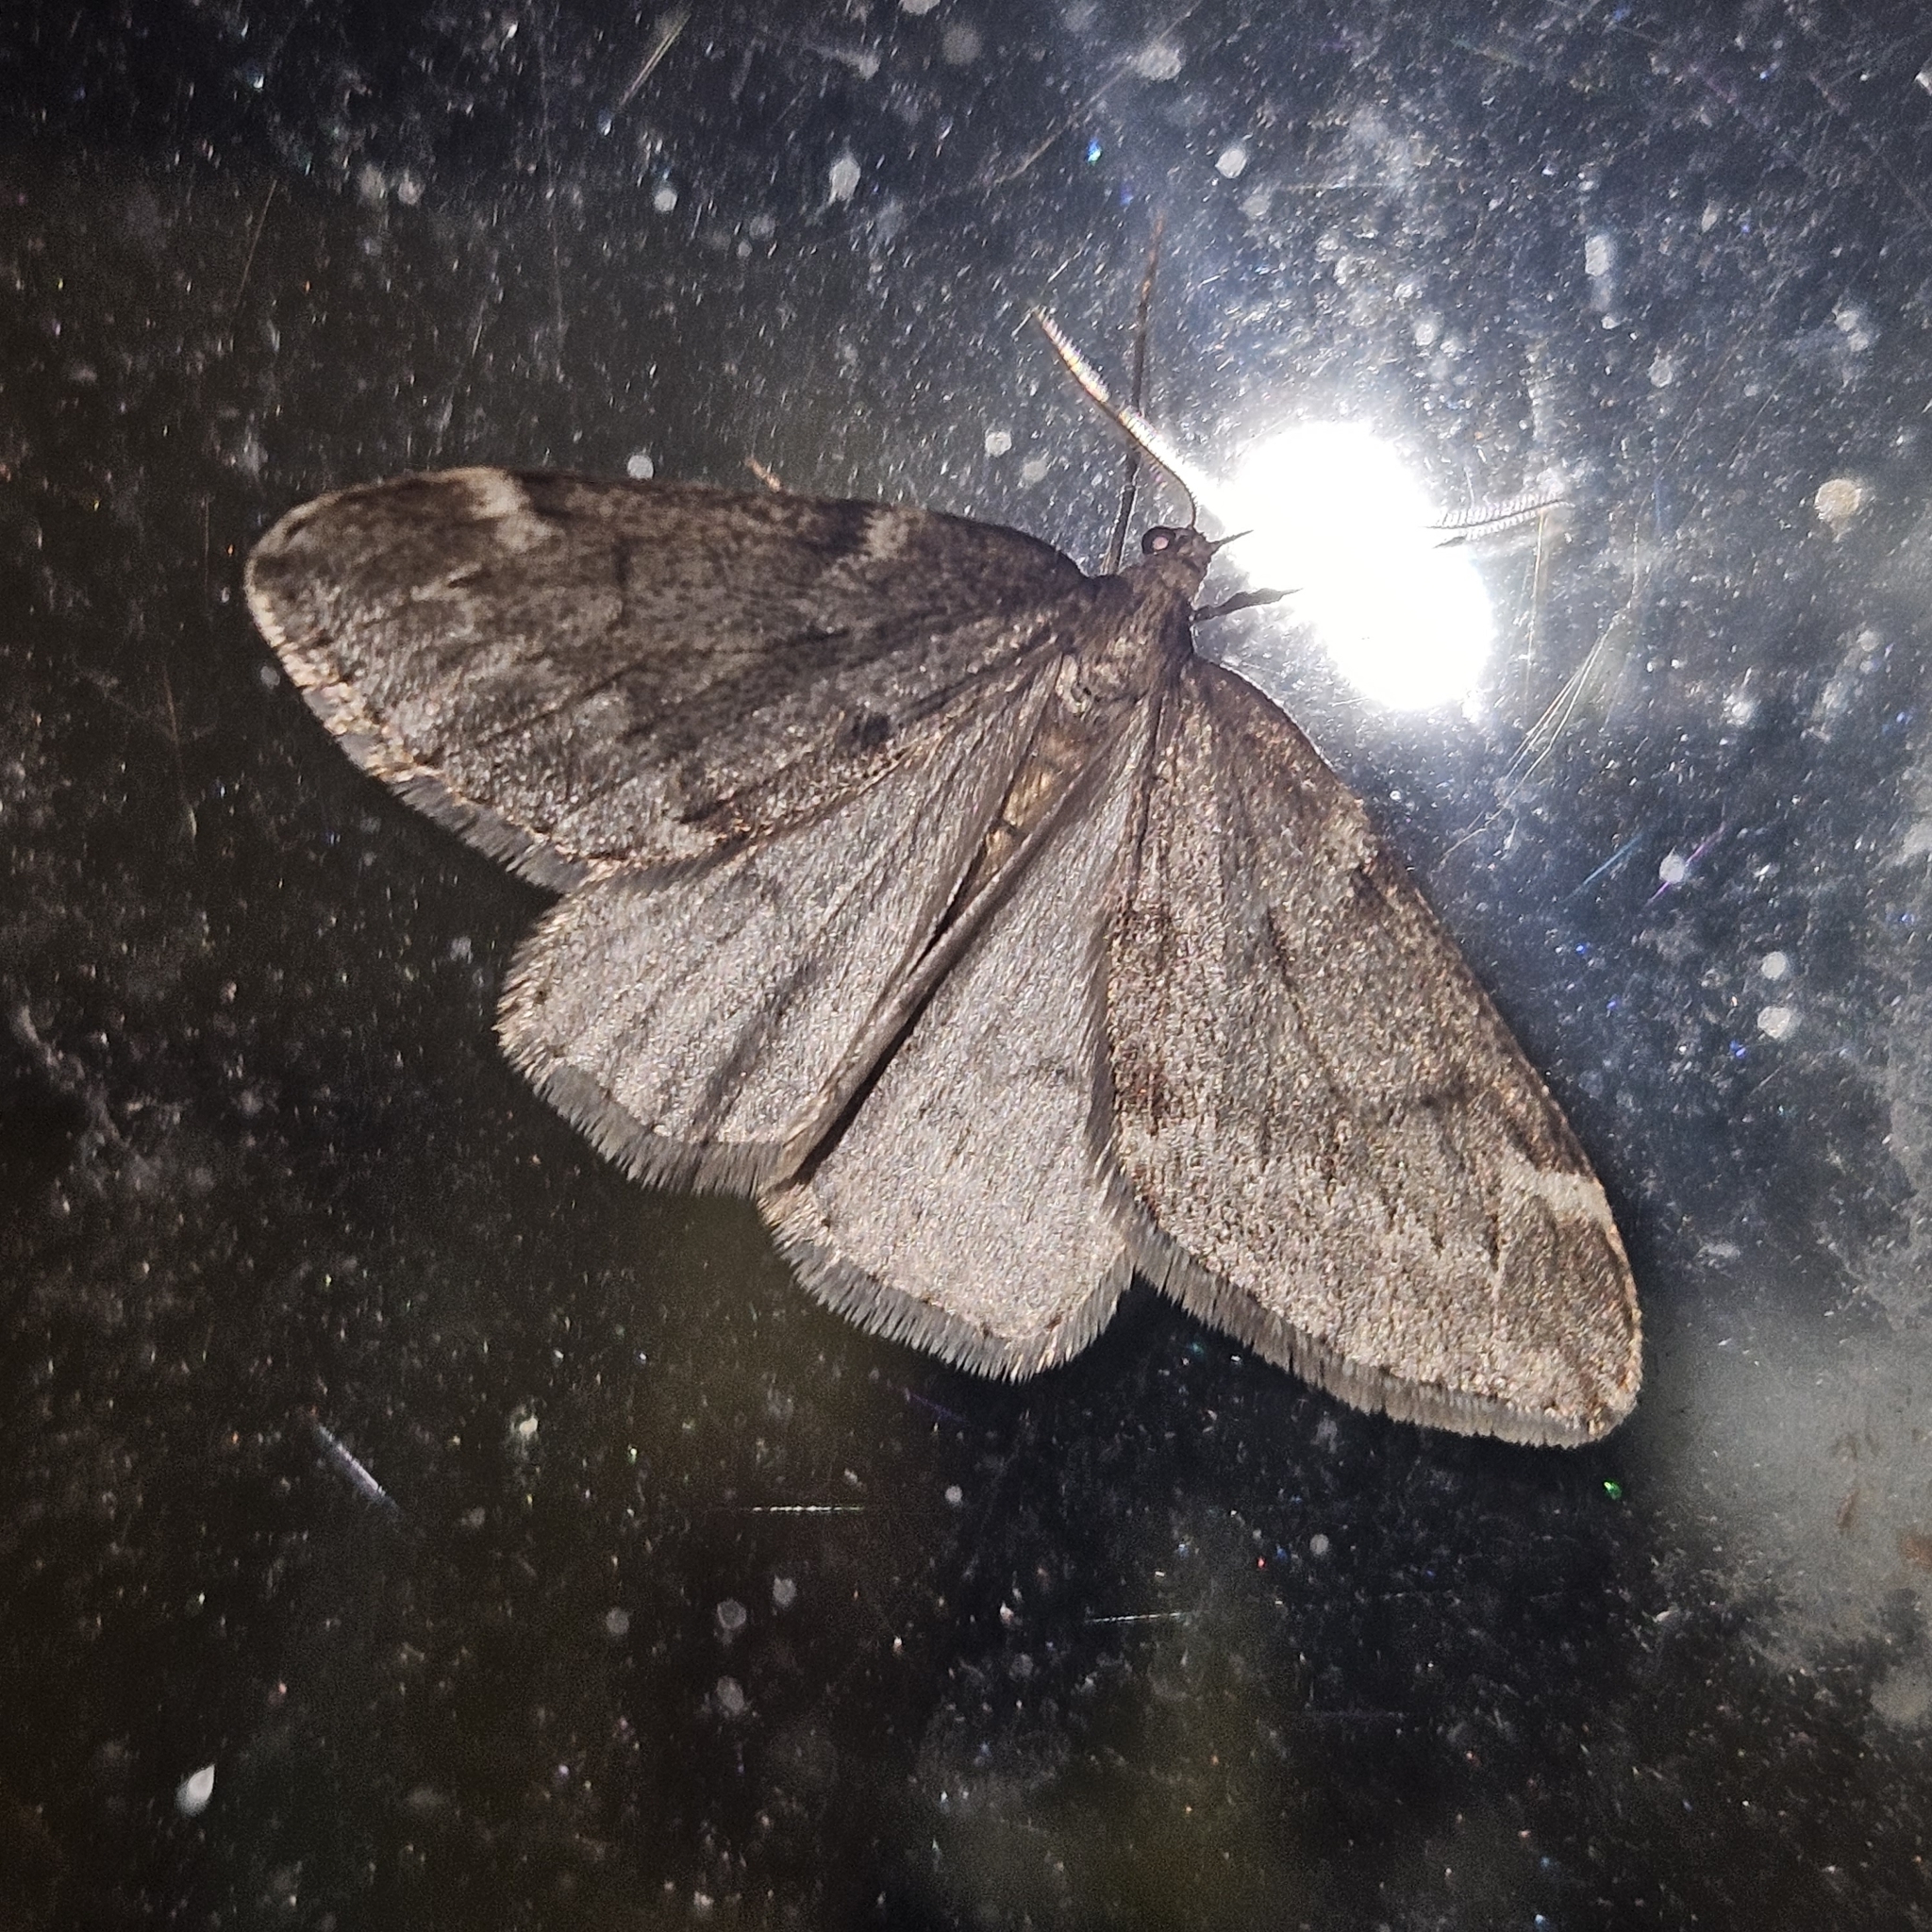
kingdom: Animalia
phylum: Arthropoda
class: Insecta
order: Lepidoptera
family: Geometridae
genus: Alsophila
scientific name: Alsophila pometaria
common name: Fall cankerworm
